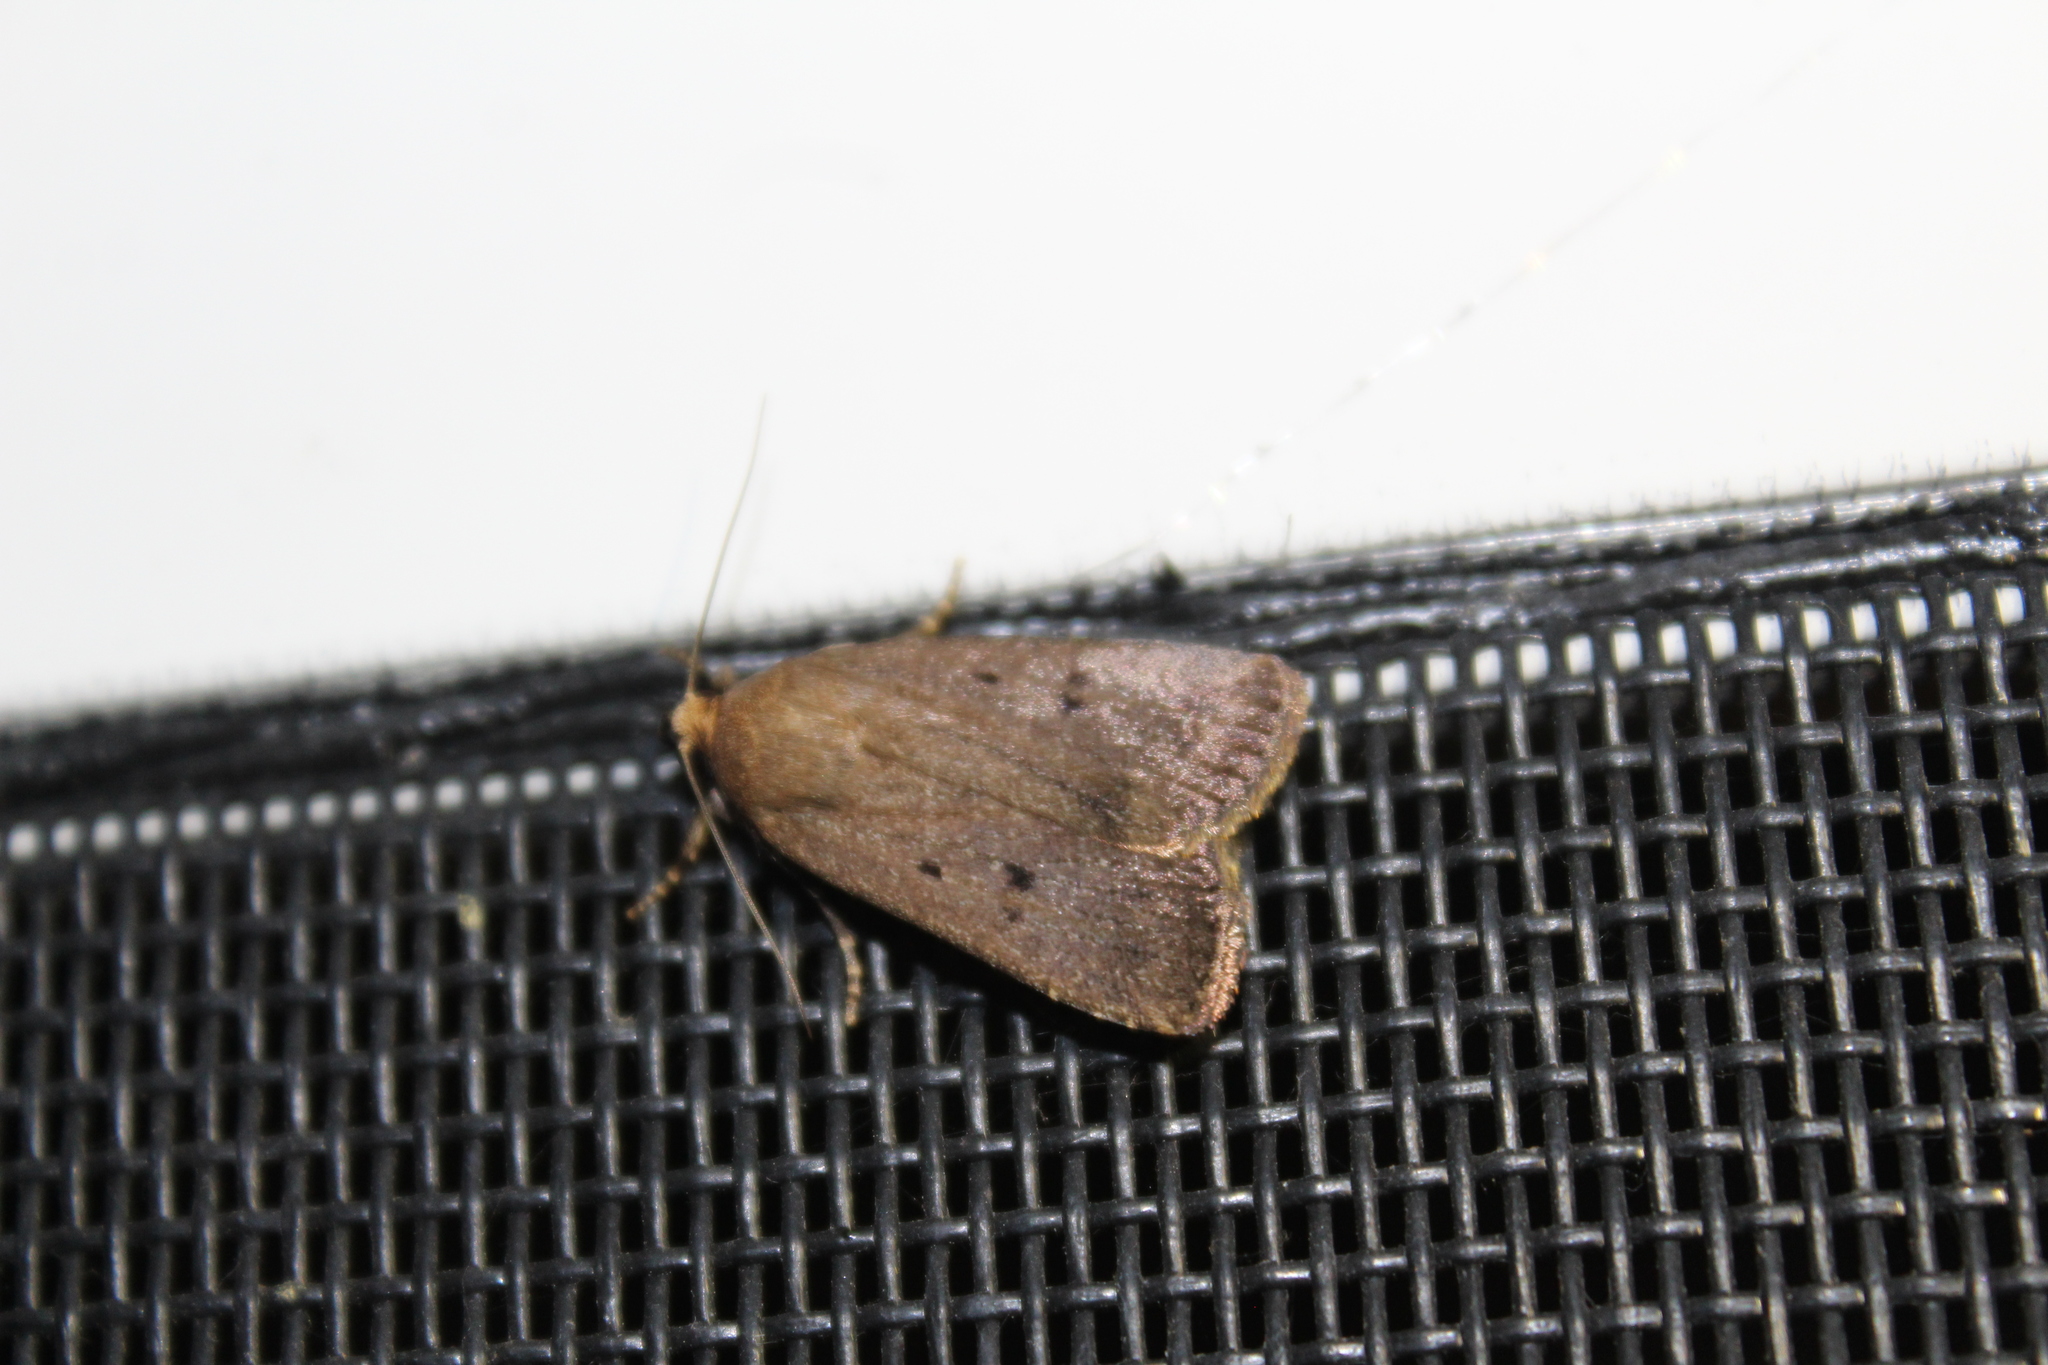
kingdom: Animalia
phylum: Arthropoda
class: Insecta
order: Lepidoptera
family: Noctuidae
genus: Amphipyra
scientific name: Amphipyra tragopoginis
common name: Mouse moth
